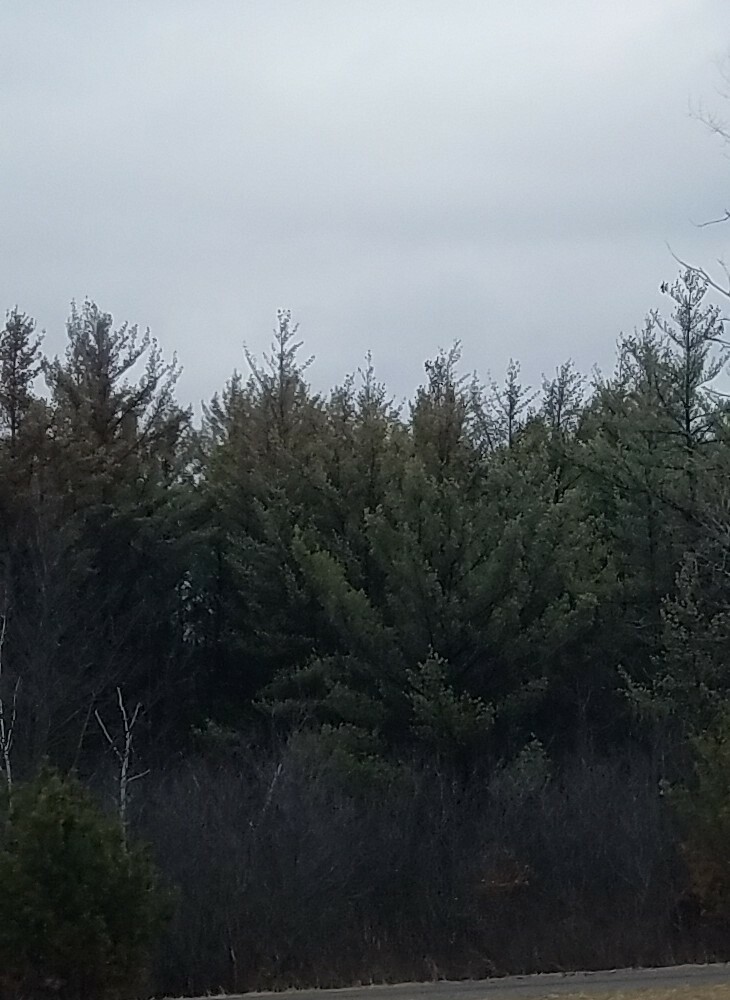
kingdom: Plantae
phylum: Tracheophyta
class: Pinopsida
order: Pinales
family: Pinaceae
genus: Pinus
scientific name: Pinus strobus
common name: Weymouth pine
